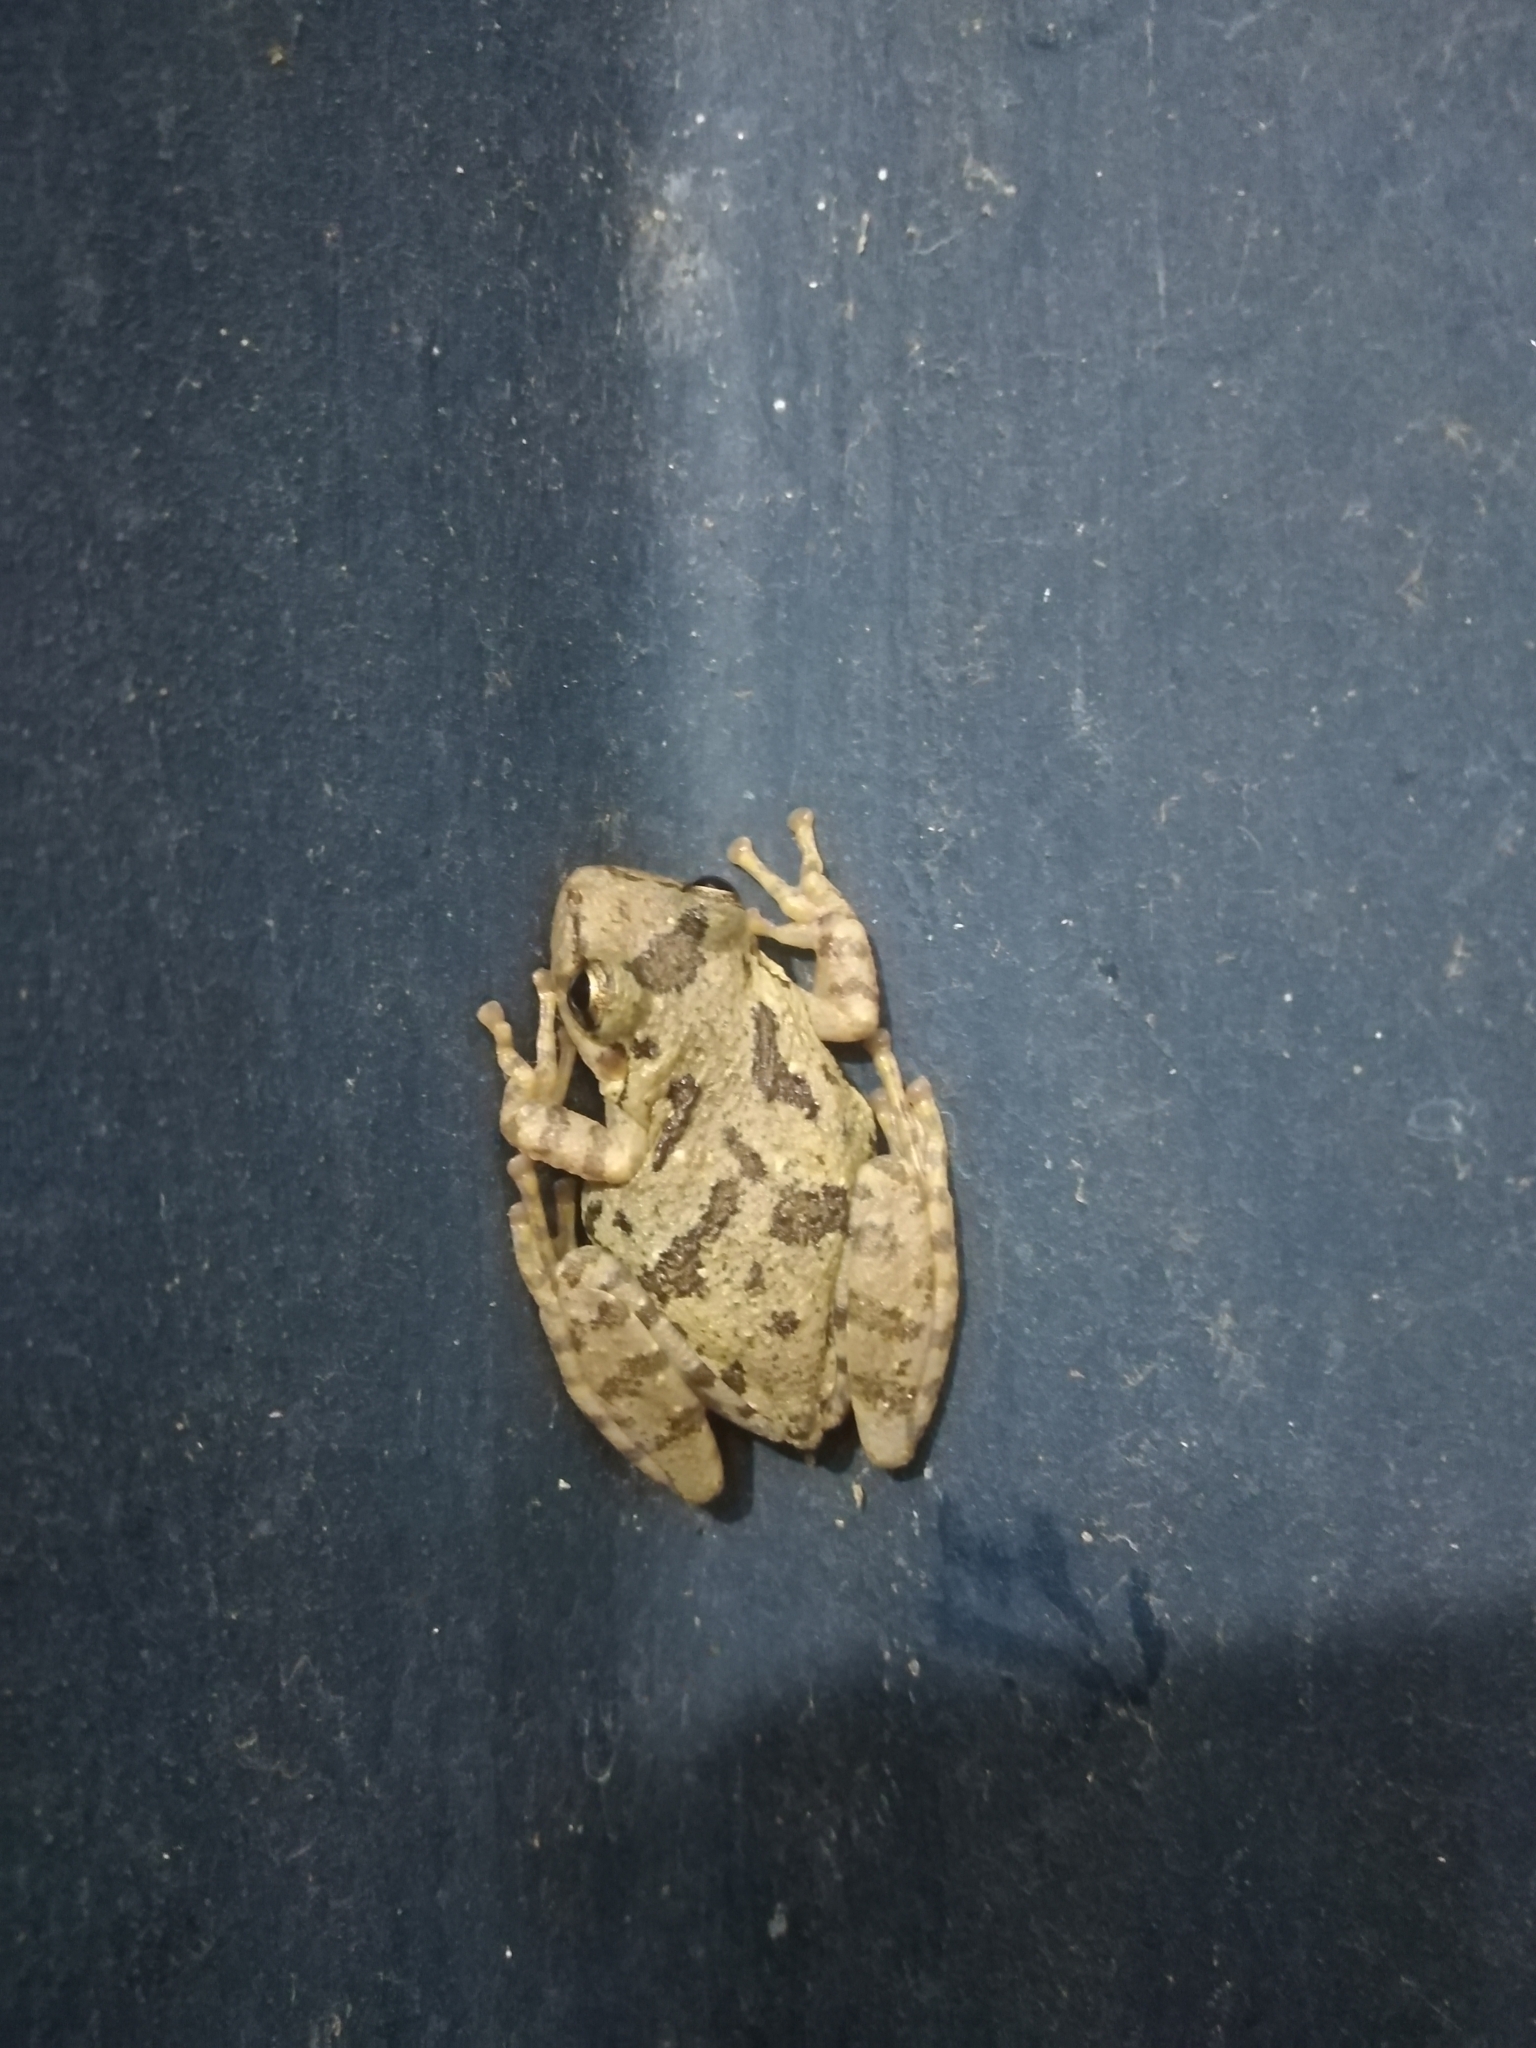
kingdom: Animalia
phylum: Chordata
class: Amphibia
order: Anura
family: Hylidae
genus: Scinax
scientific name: Scinax granulatus
